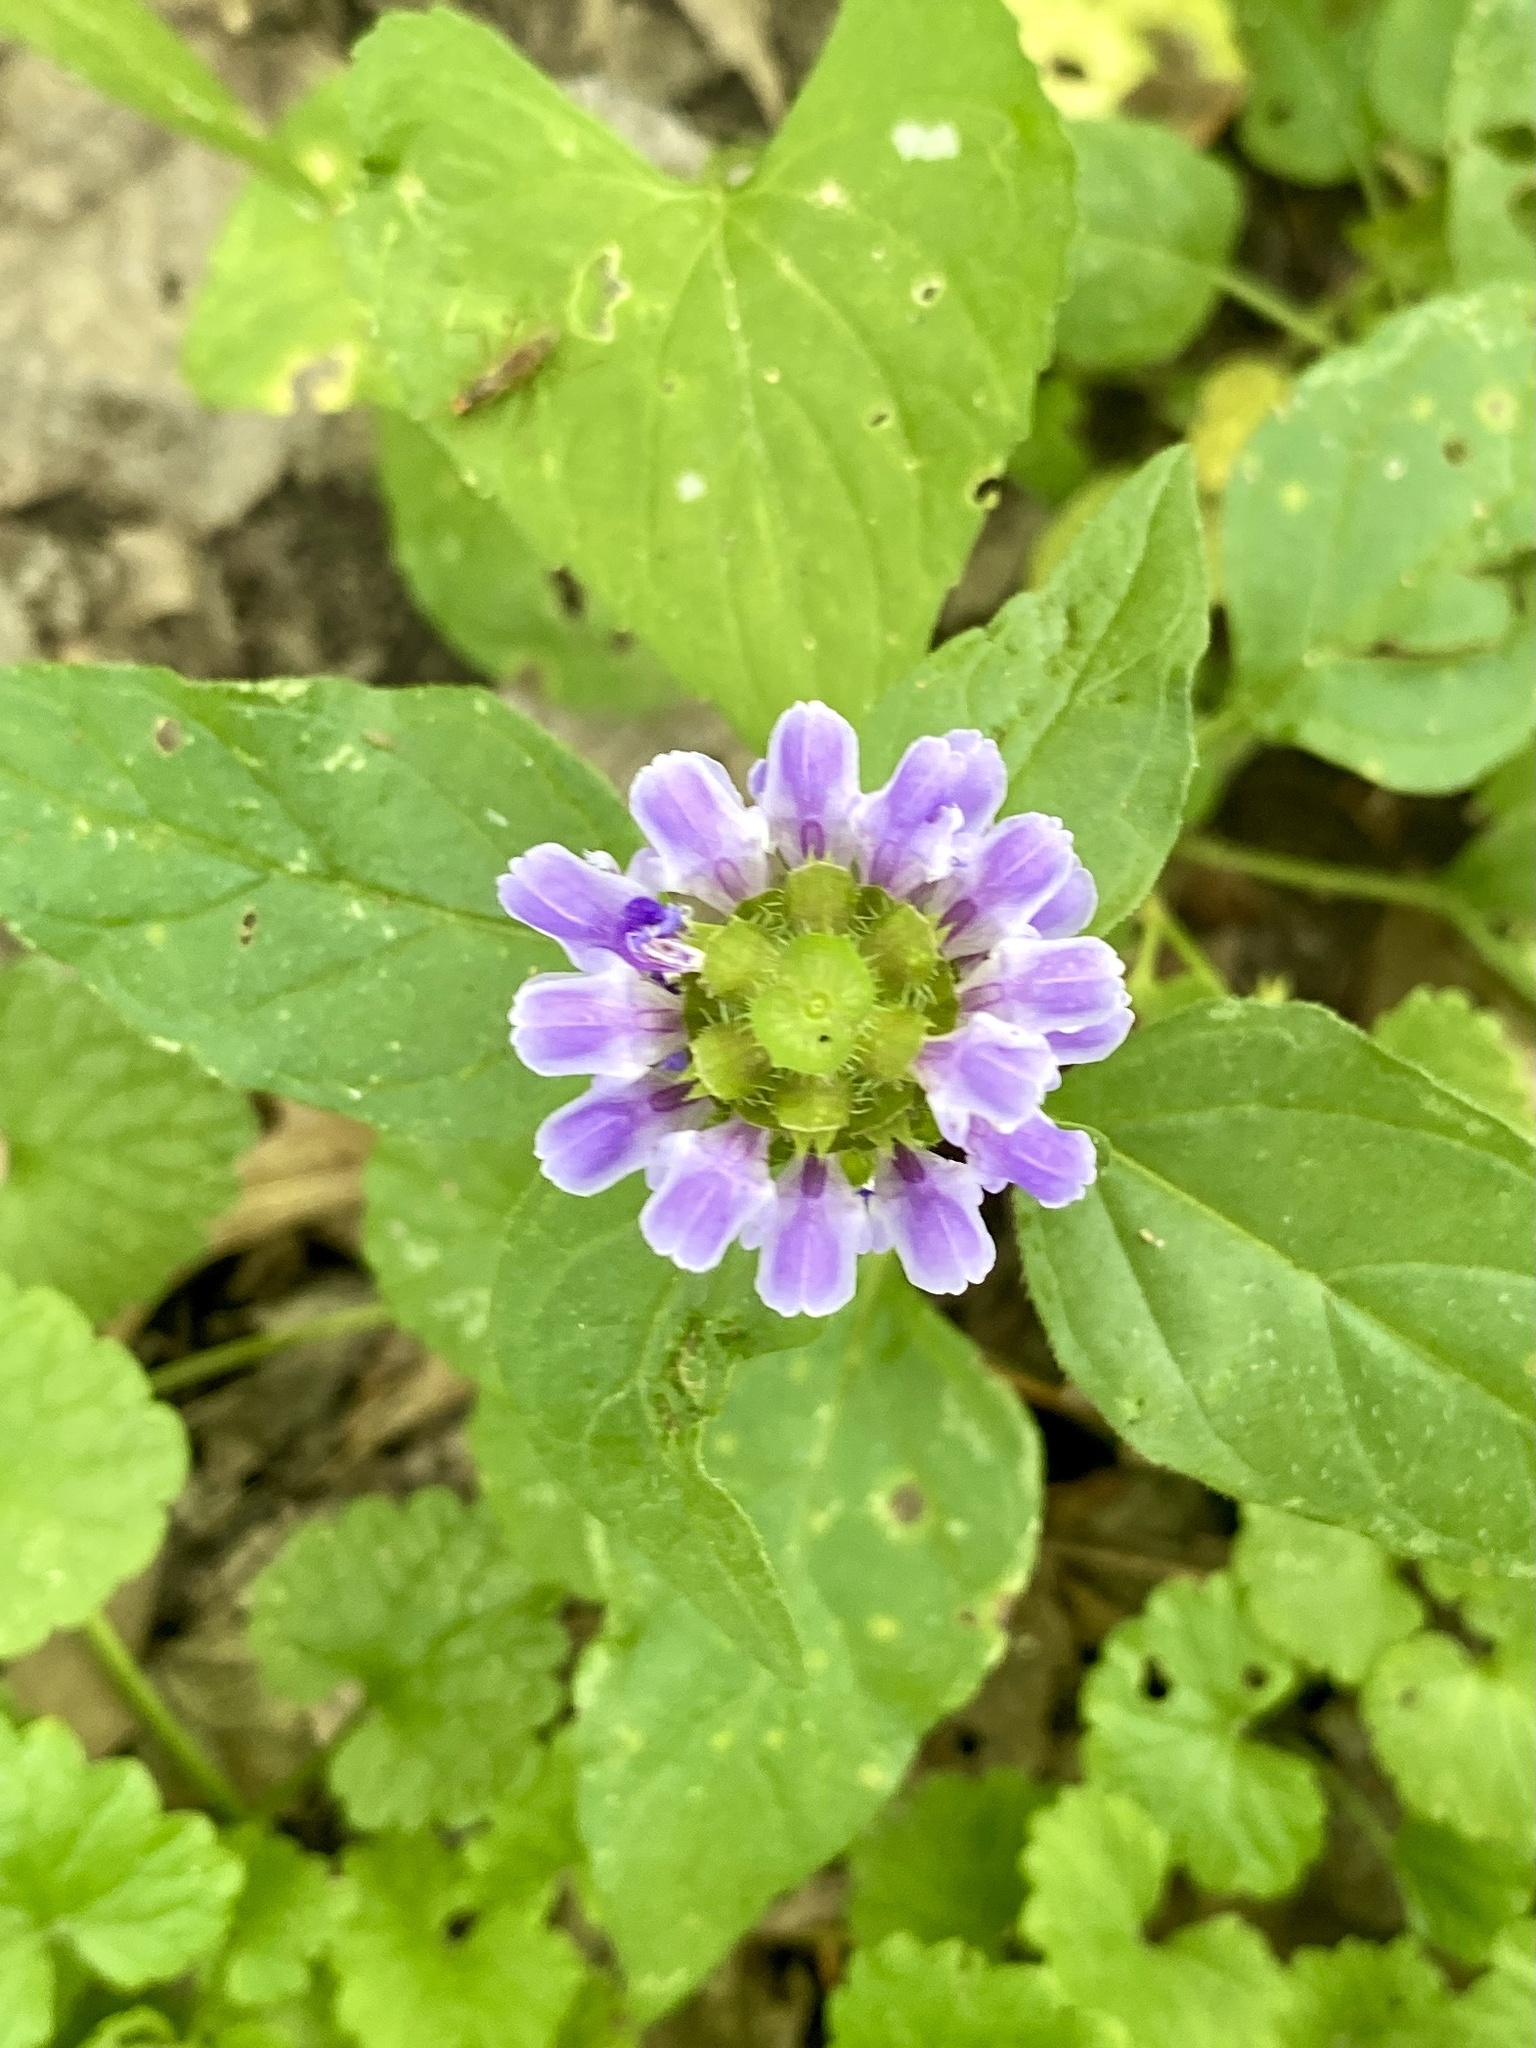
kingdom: Plantae
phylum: Tracheophyta
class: Magnoliopsida
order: Lamiales
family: Lamiaceae
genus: Prunella
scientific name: Prunella vulgaris
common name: Heal-all
